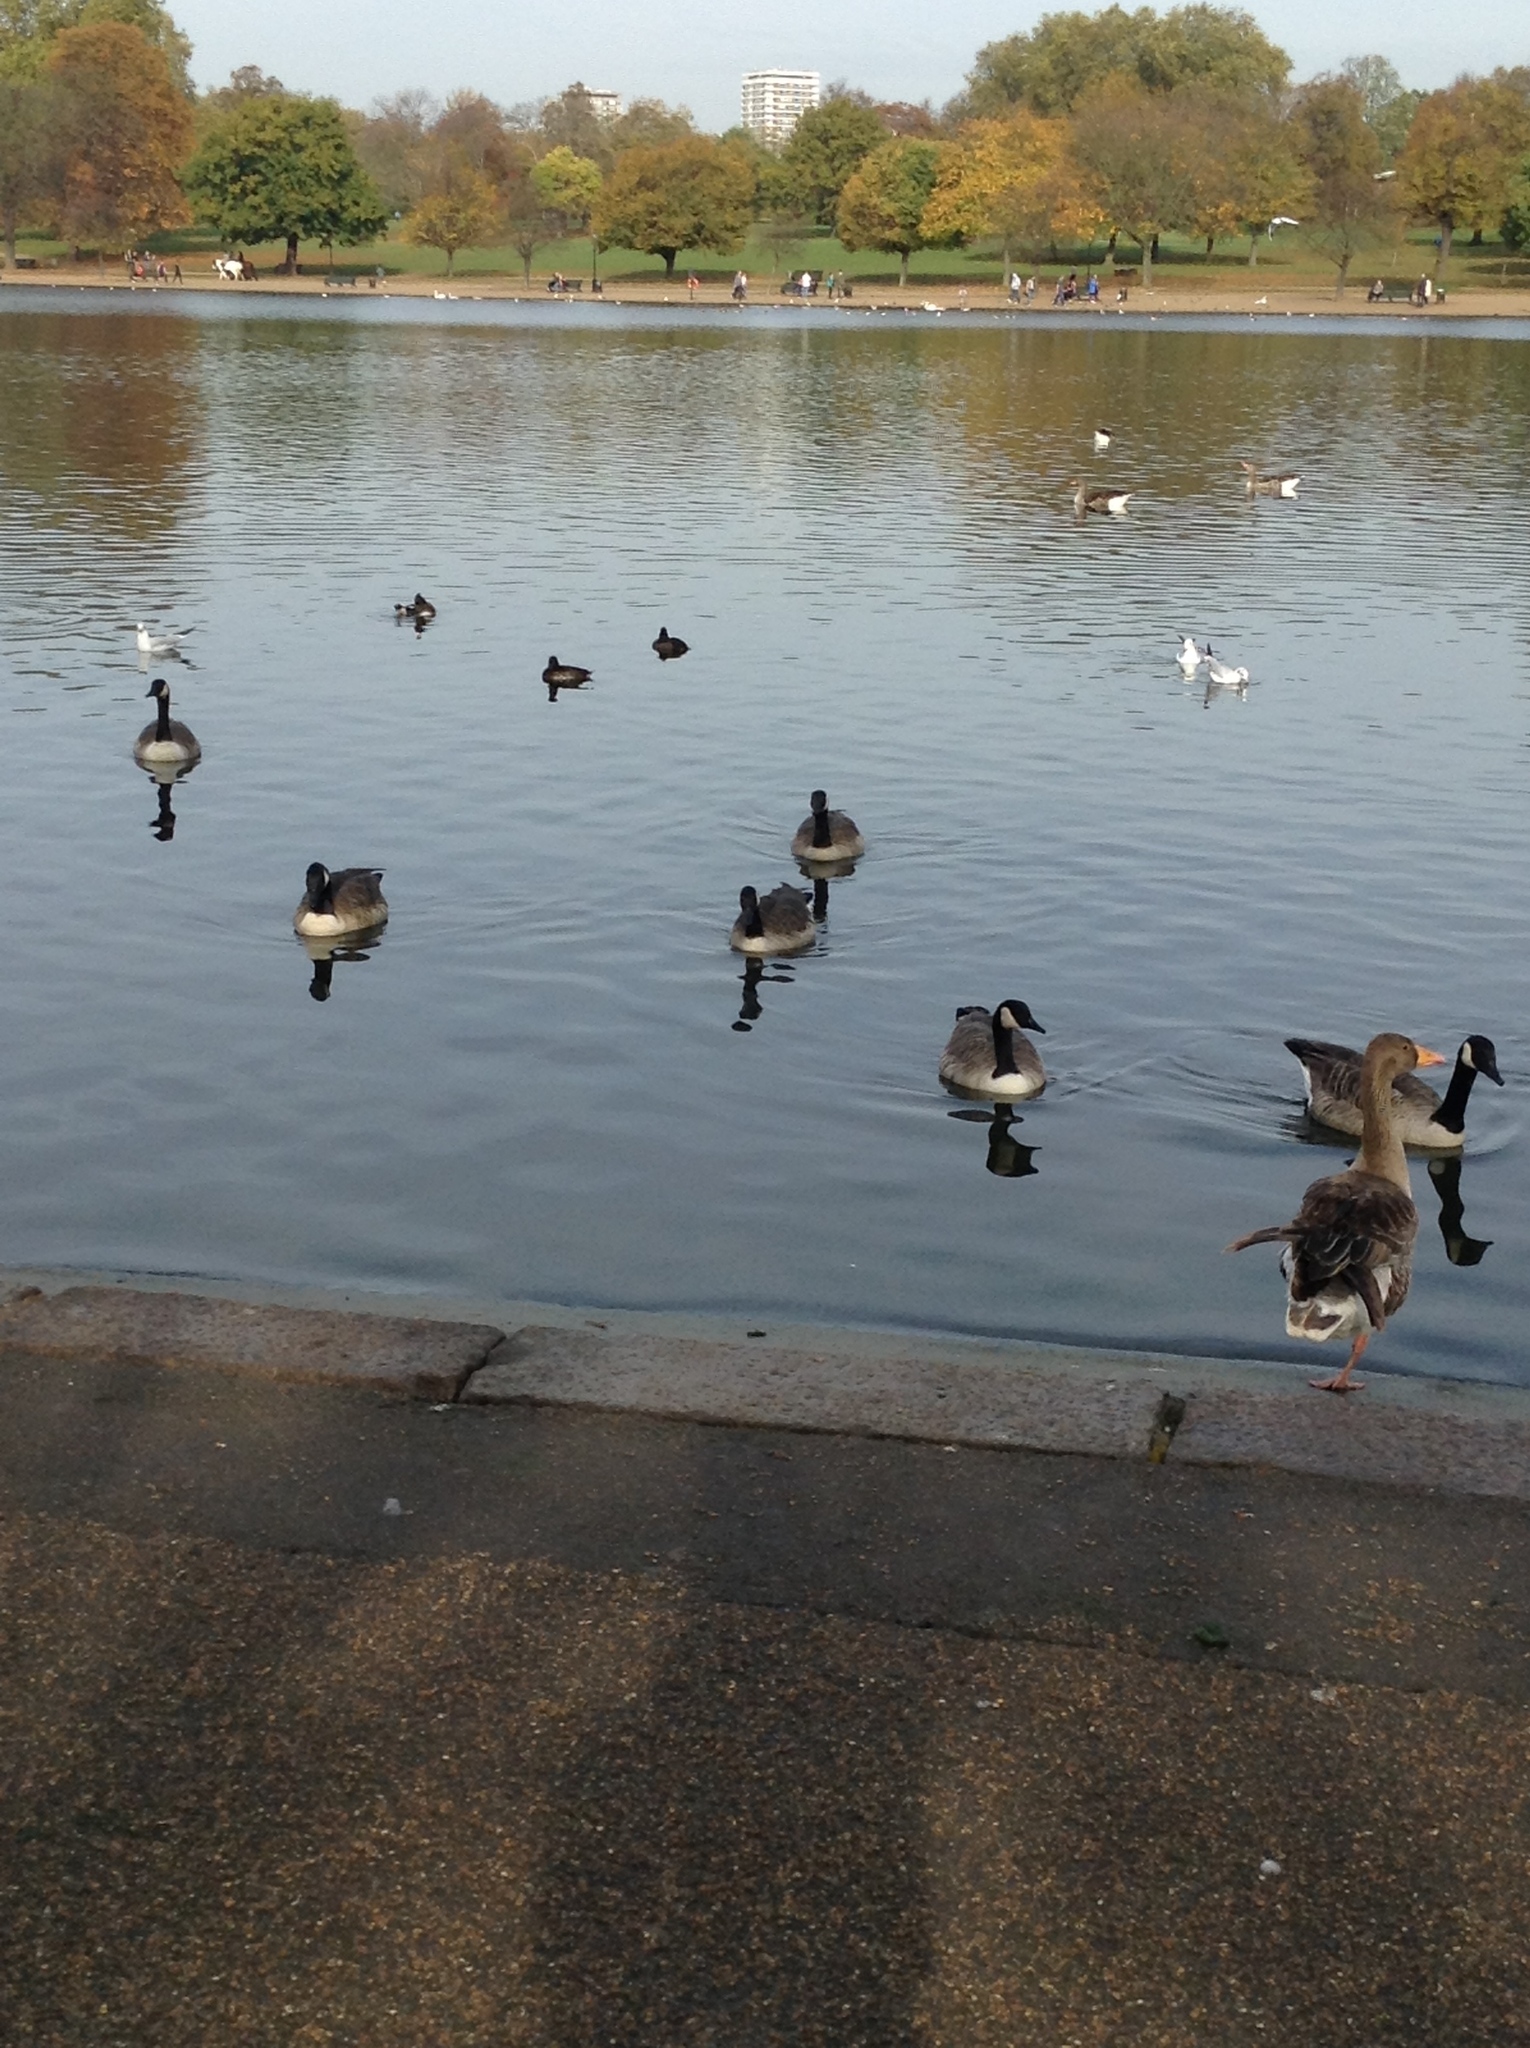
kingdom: Animalia
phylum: Chordata
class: Aves
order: Anseriformes
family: Anatidae
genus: Branta
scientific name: Branta canadensis
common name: Canada goose
